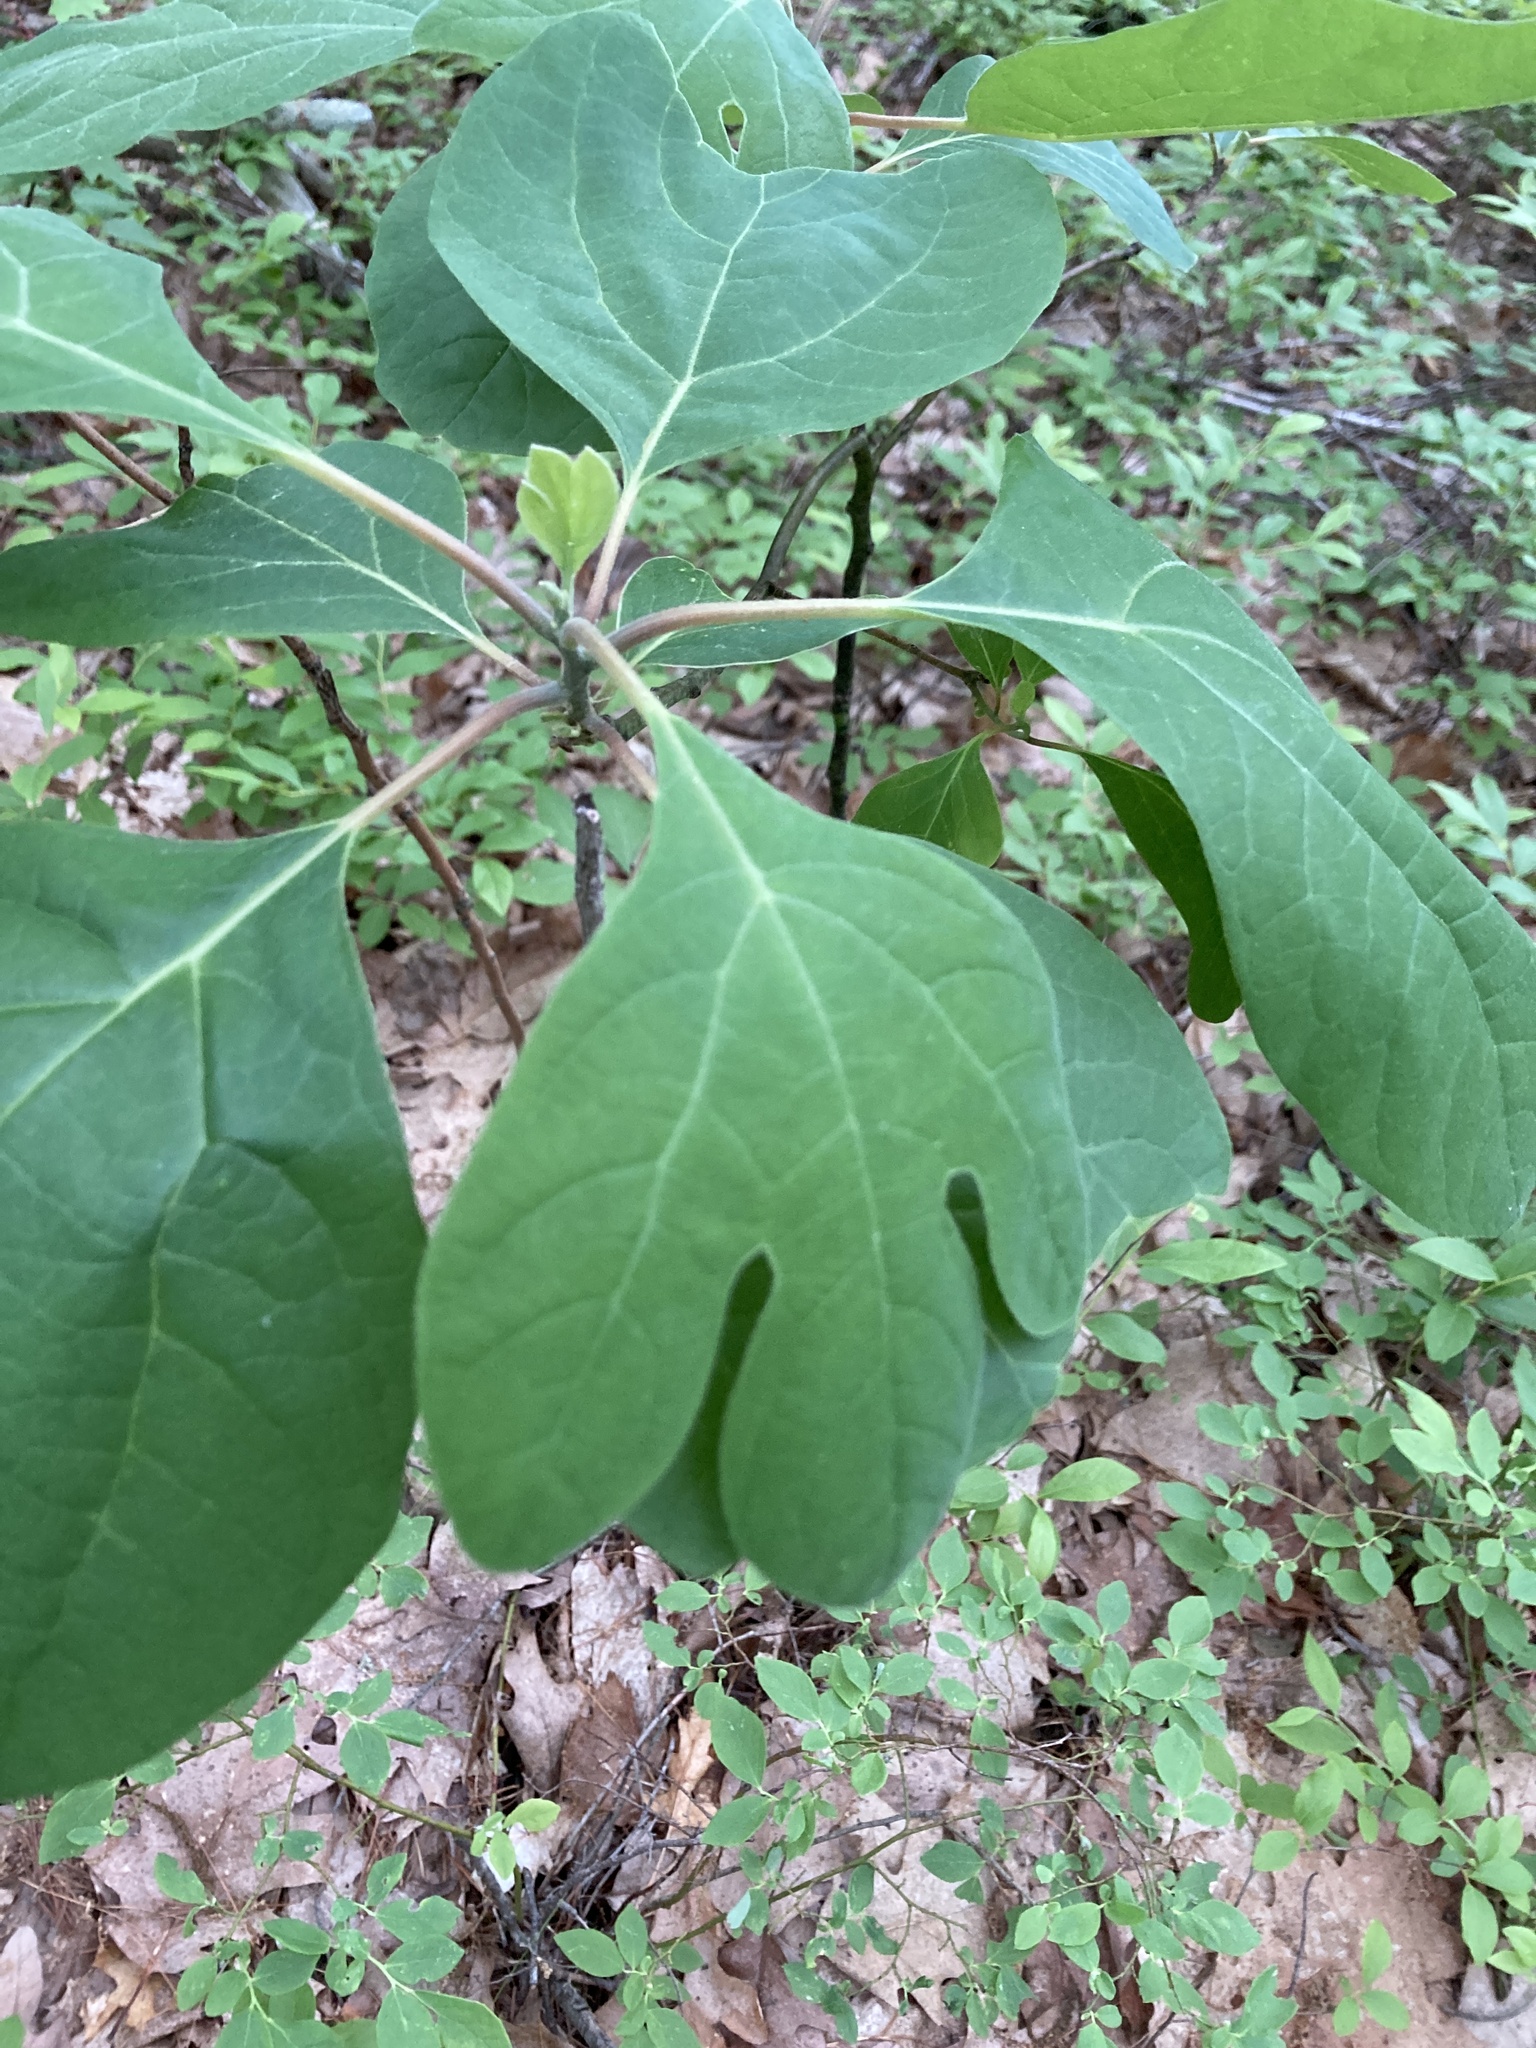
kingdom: Plantae
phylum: Tracheophyta
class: Magnoliopsida
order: Laurales
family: Lauraceae
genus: Sassafras
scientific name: Sassafras albidum
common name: Sassafras
